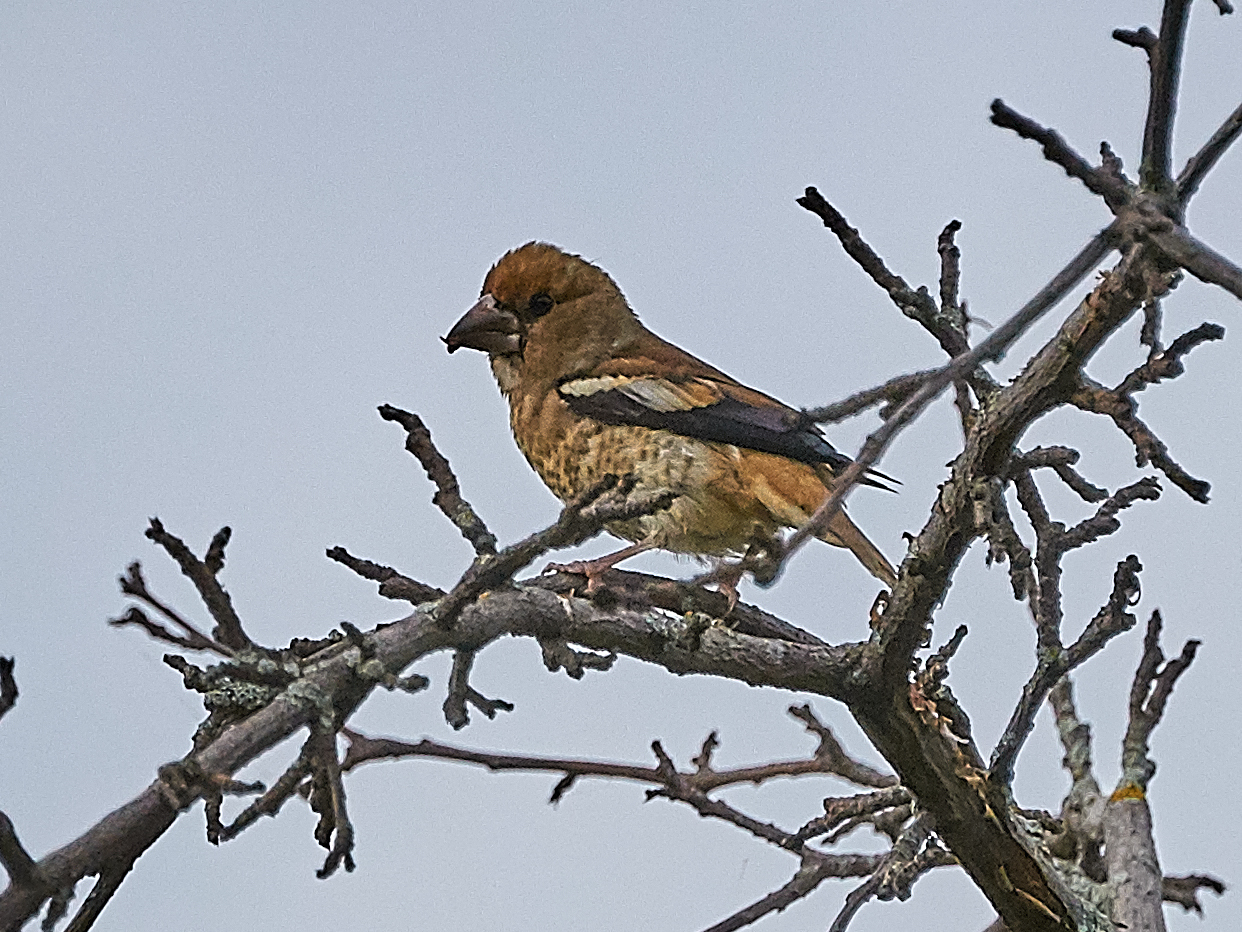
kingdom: Animalia
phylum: Chordata
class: Aves
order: Passeriformes
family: Fringillidae
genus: Coccothraustes
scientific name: Coccothraustes coccothraustes
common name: Hawfinch
